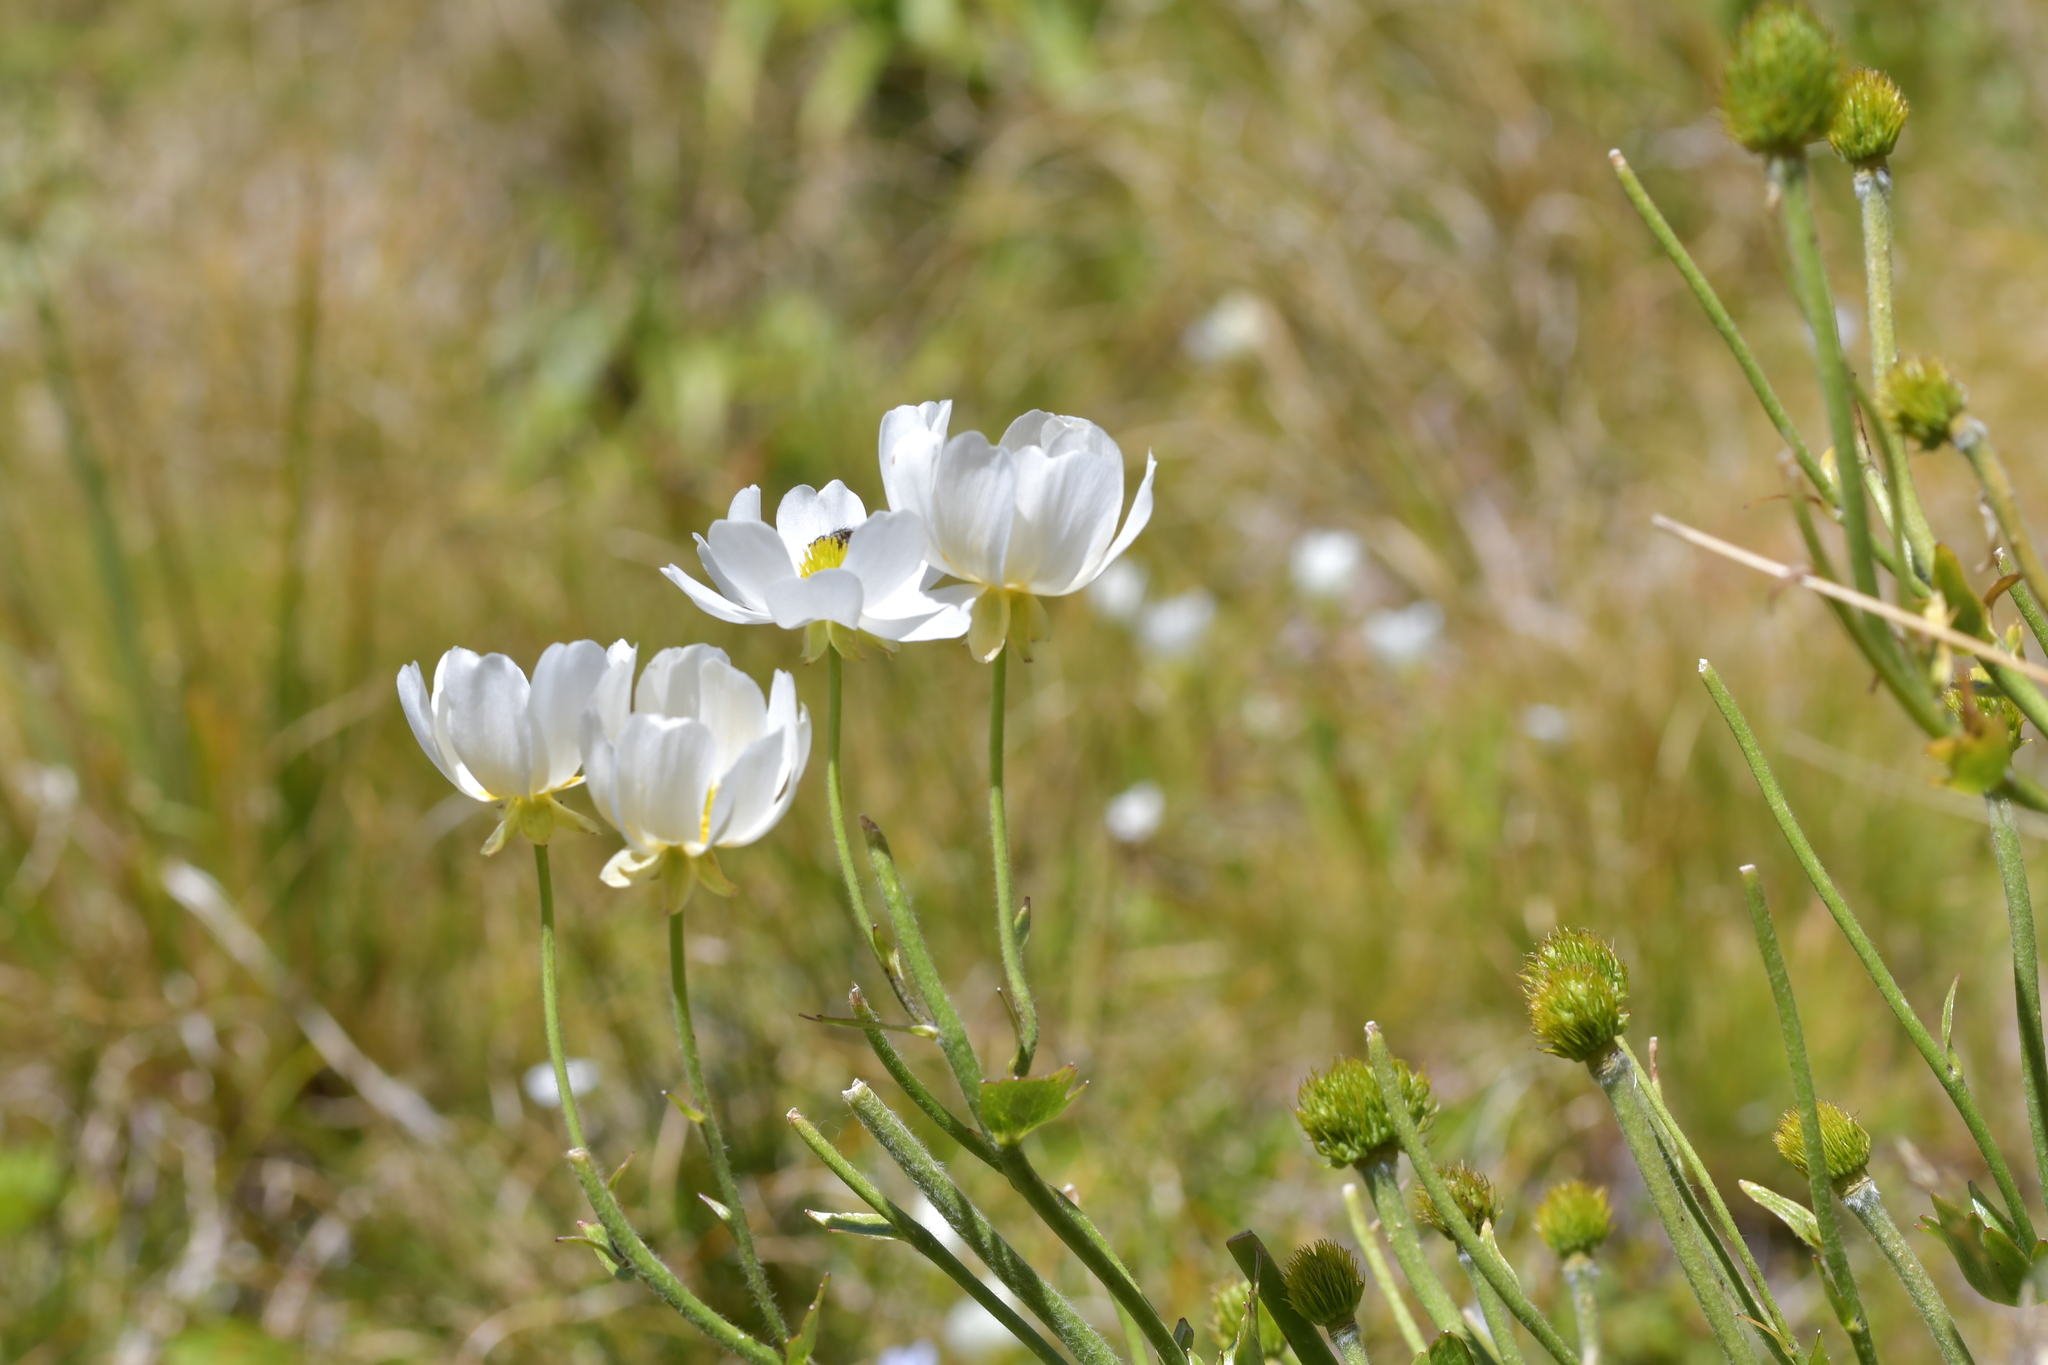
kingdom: Plantae
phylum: Tracheophyta
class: Magnoliopsida
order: Ranunculales
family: Ranunculaceae
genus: Ranunculus
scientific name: Ranunculus lyallii
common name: Mountain-lily
